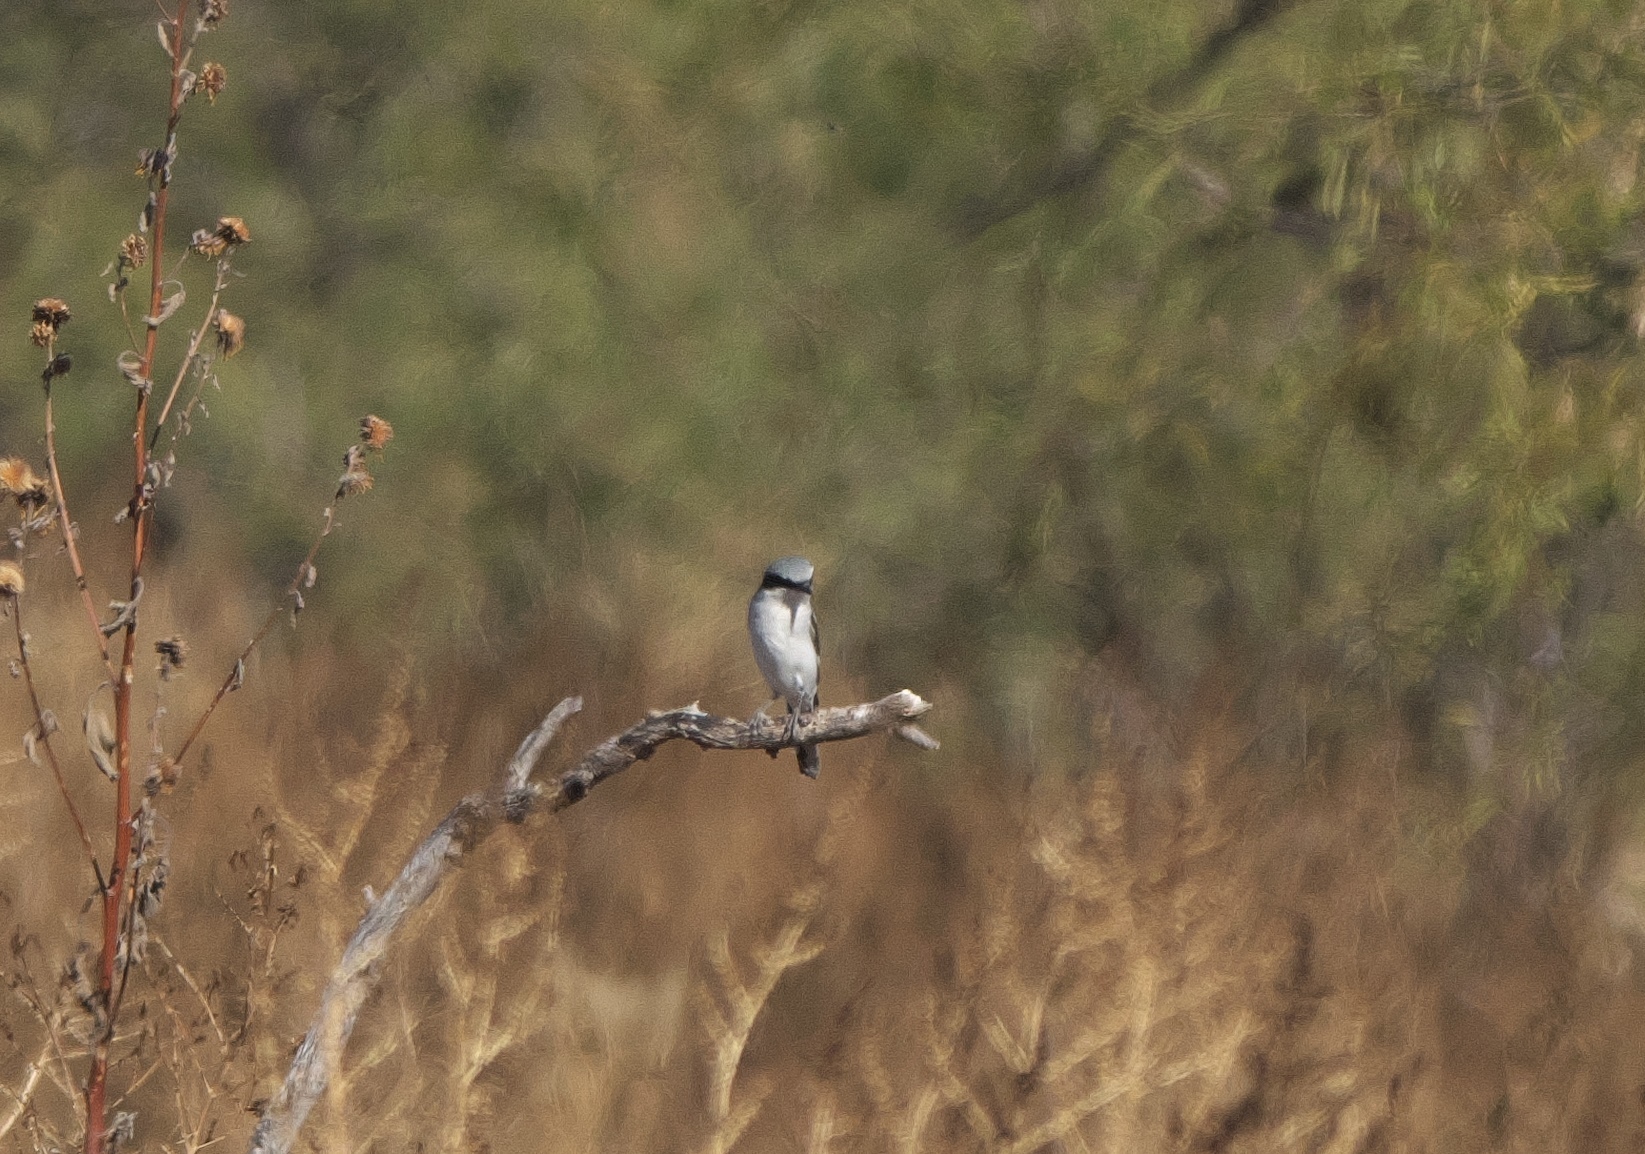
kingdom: Animalia
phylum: Chordata
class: Aves
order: Passeriformes
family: Laniidae
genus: Lanius
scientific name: Lanius ludovicianus
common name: Loggerhead shrike
